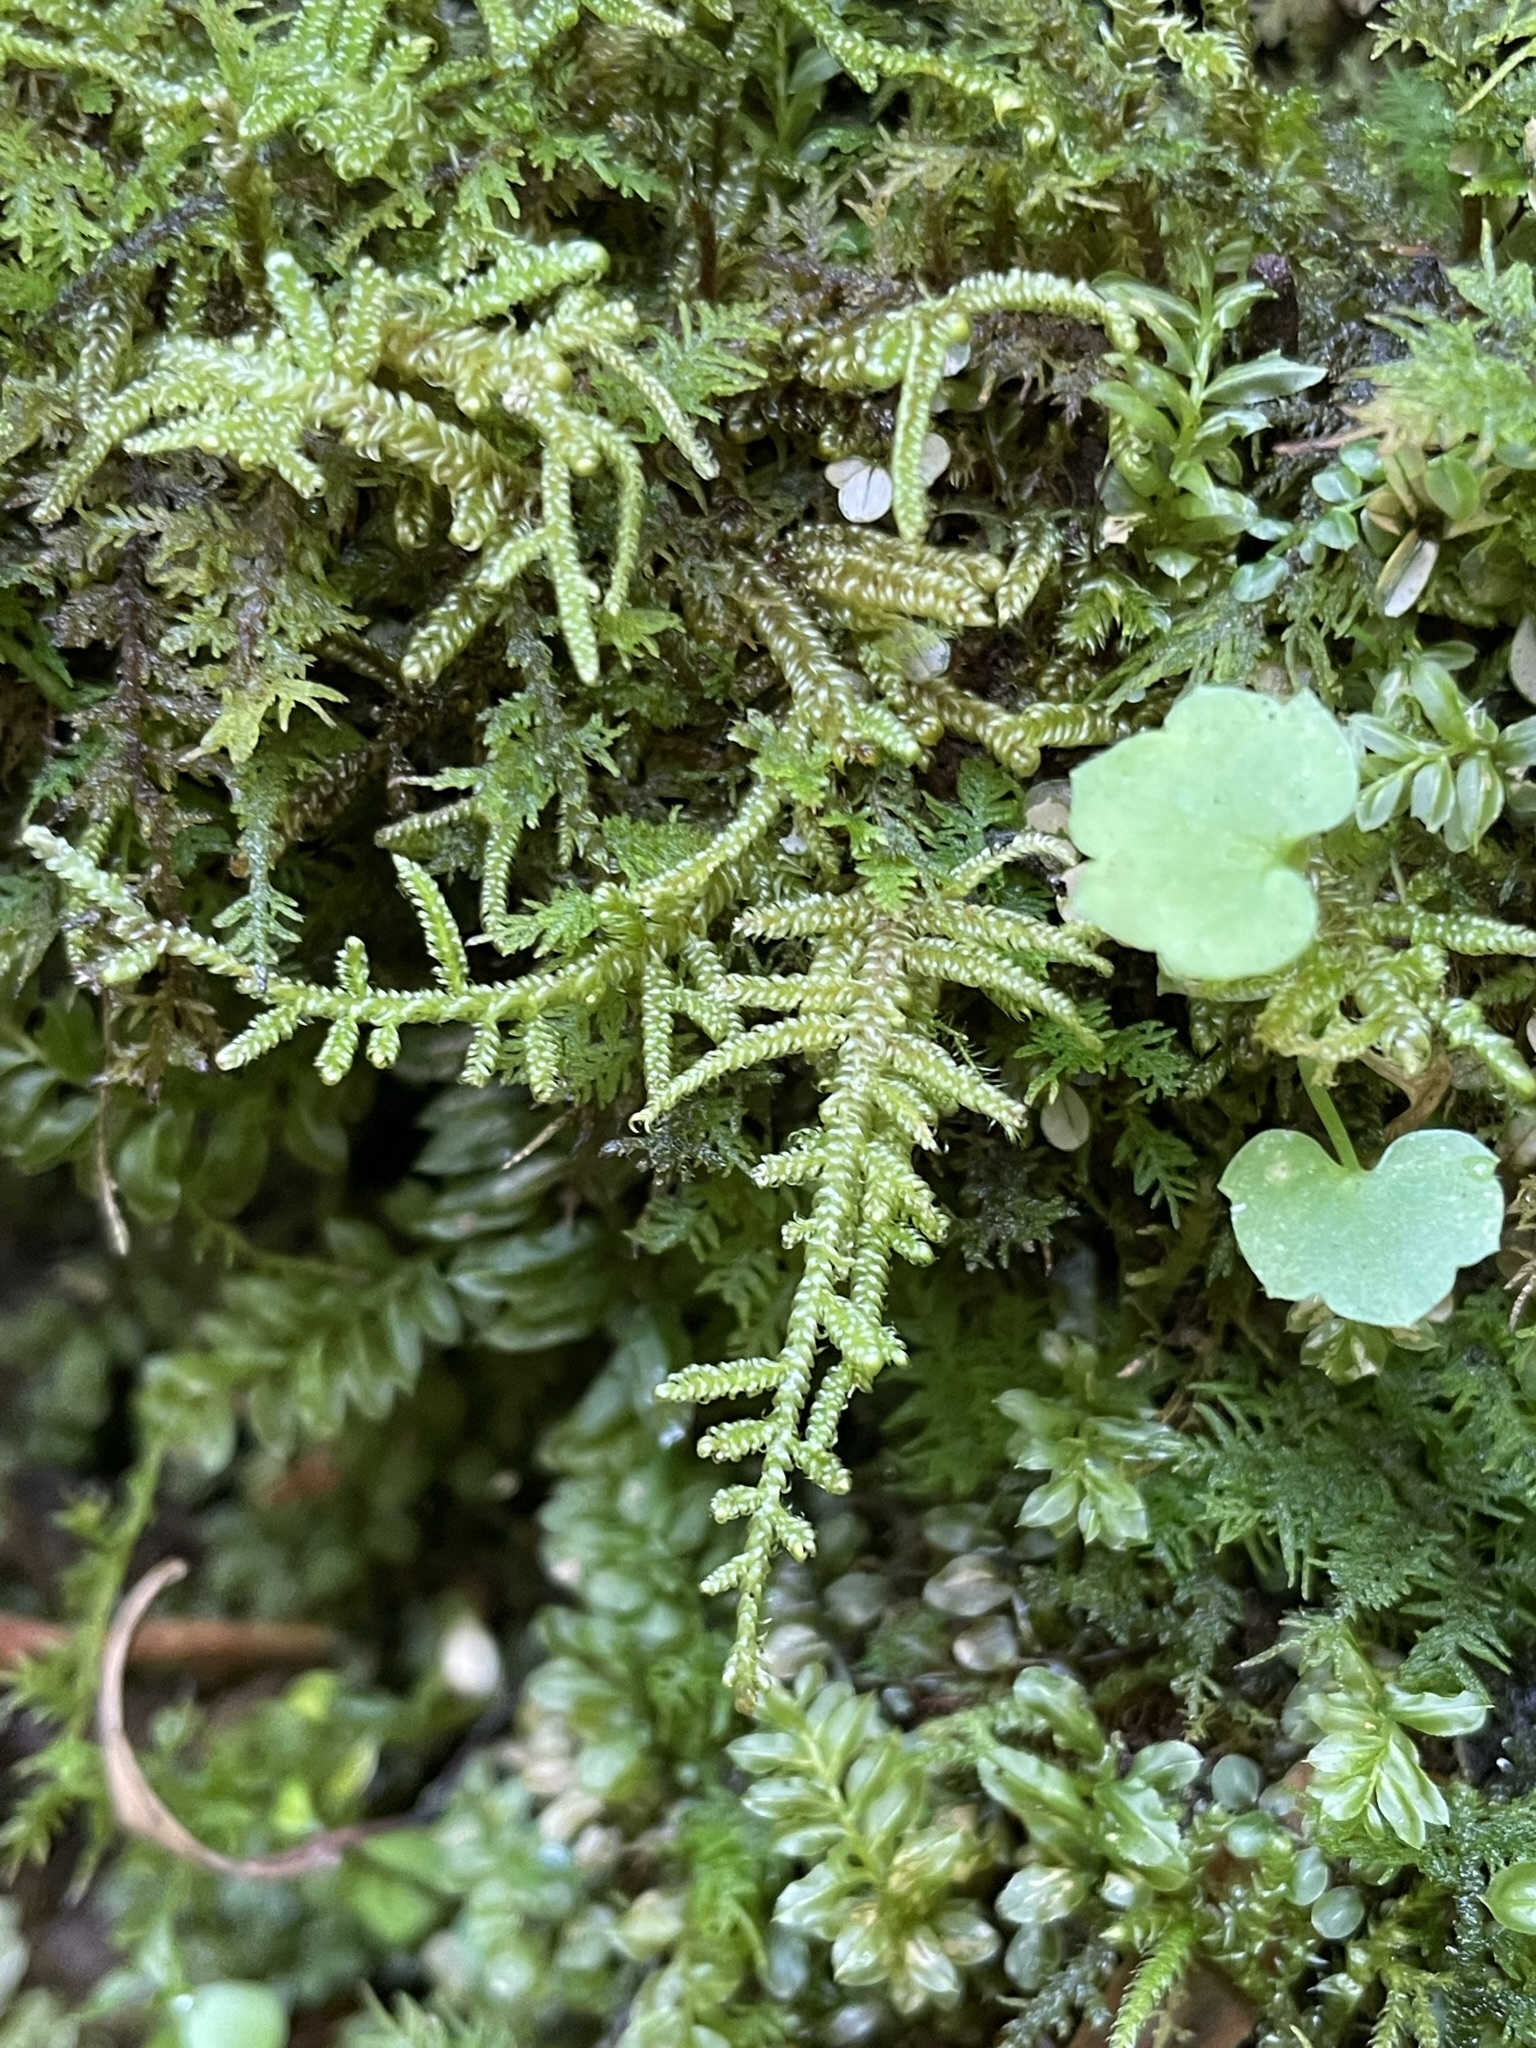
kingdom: Plantae
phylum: Bryophyta
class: Bryopsida
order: Hypnales
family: Callicladiaceae
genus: Callicladium
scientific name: Callicladium imponens
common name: Brocade moss
